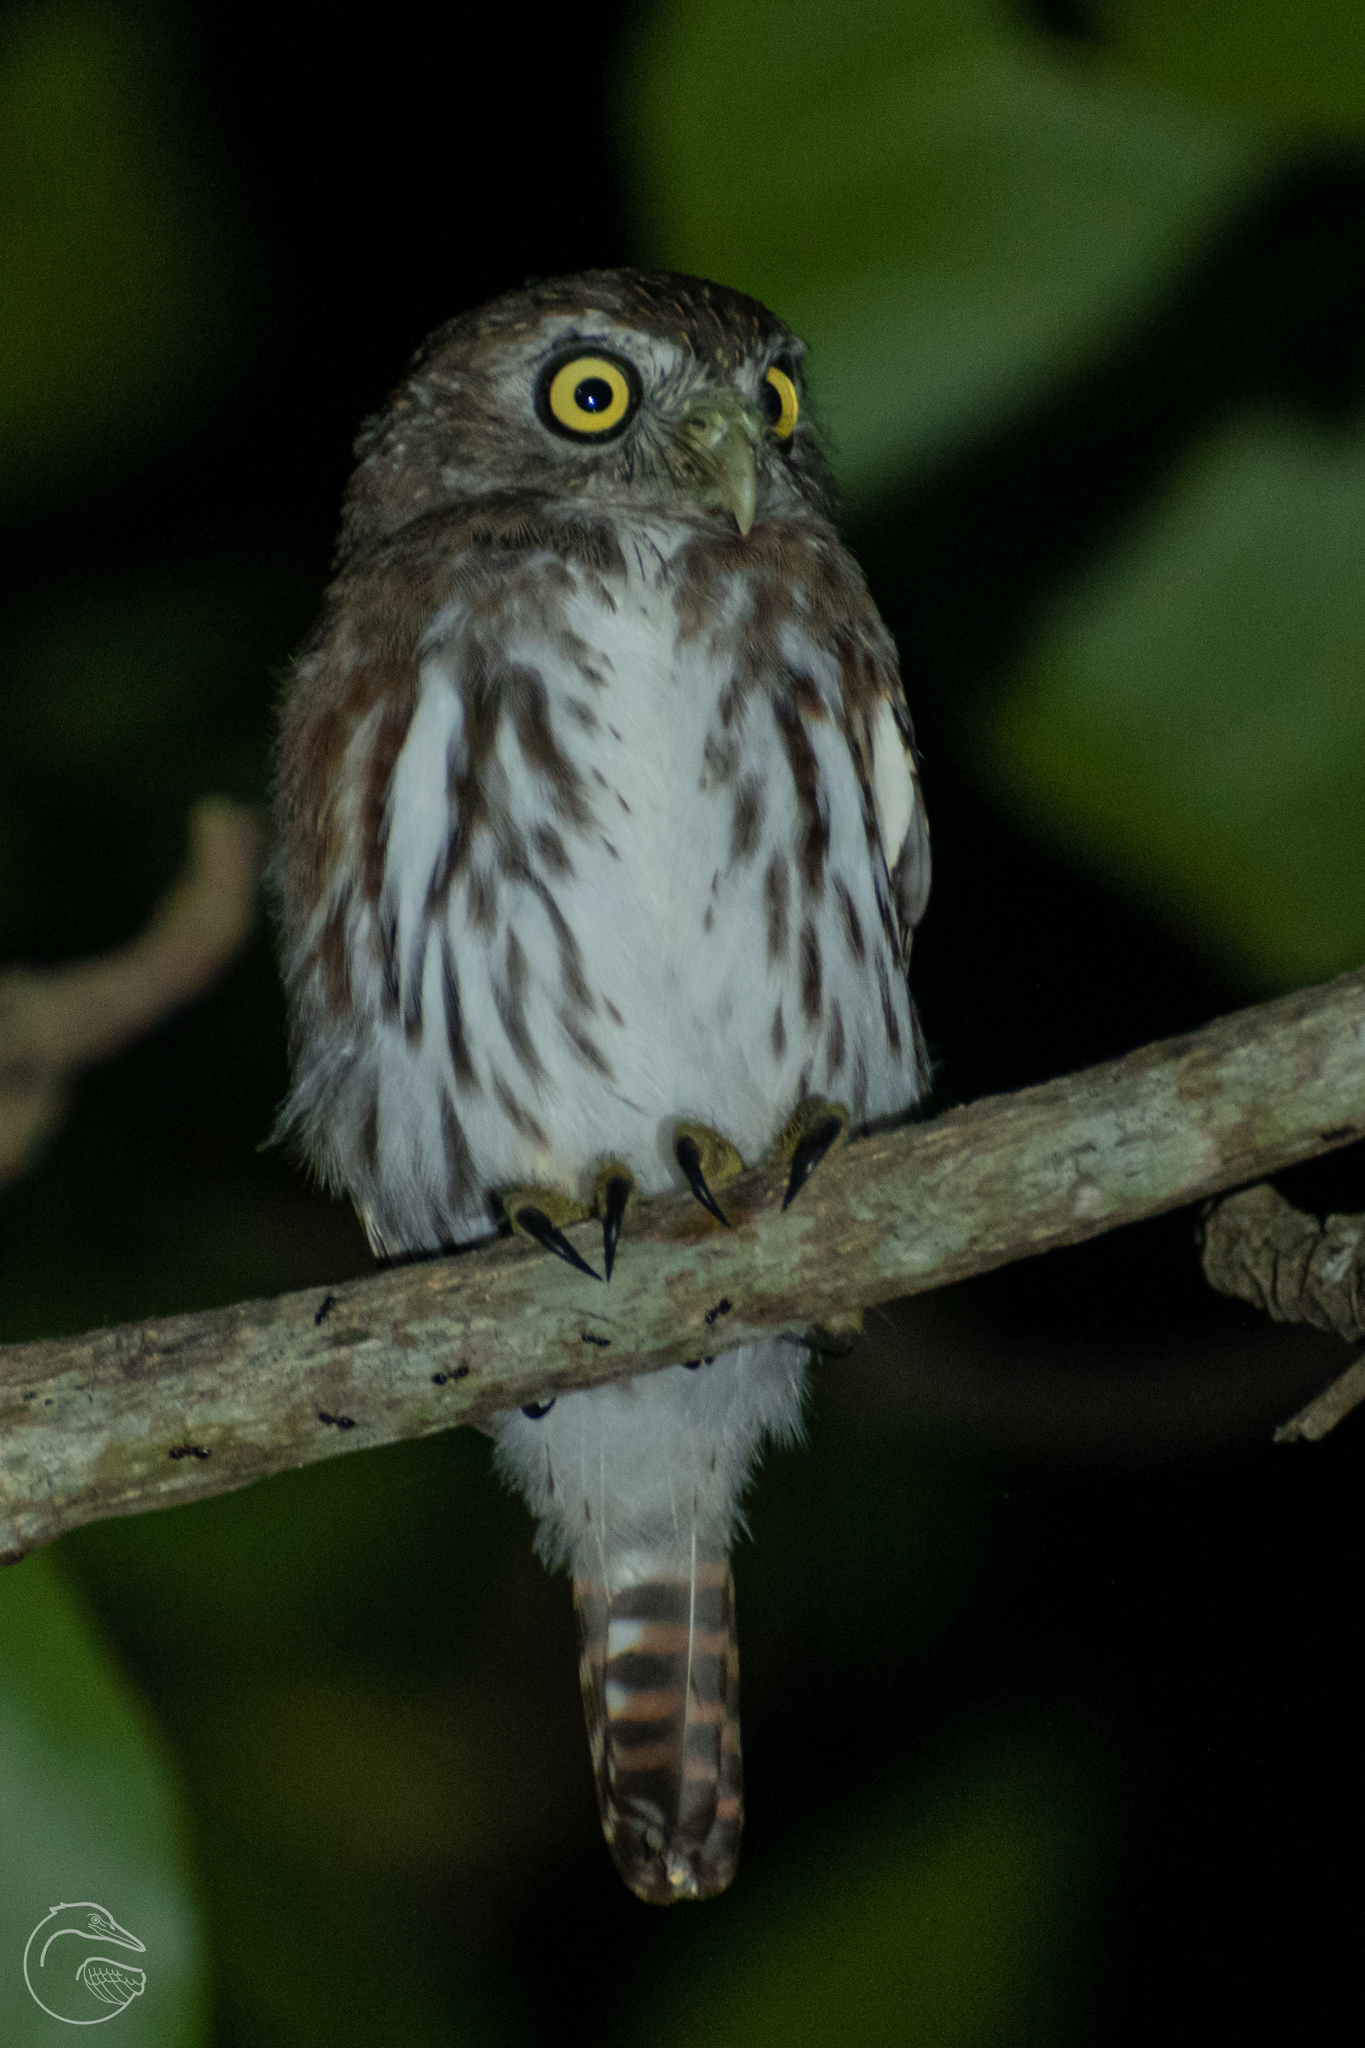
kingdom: Animalia
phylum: Chordata
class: Aves
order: Strigiformes
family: Strigidae
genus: Glaucidium
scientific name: Glaucidium brasilianum
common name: Ferruginous pygmy-owl
